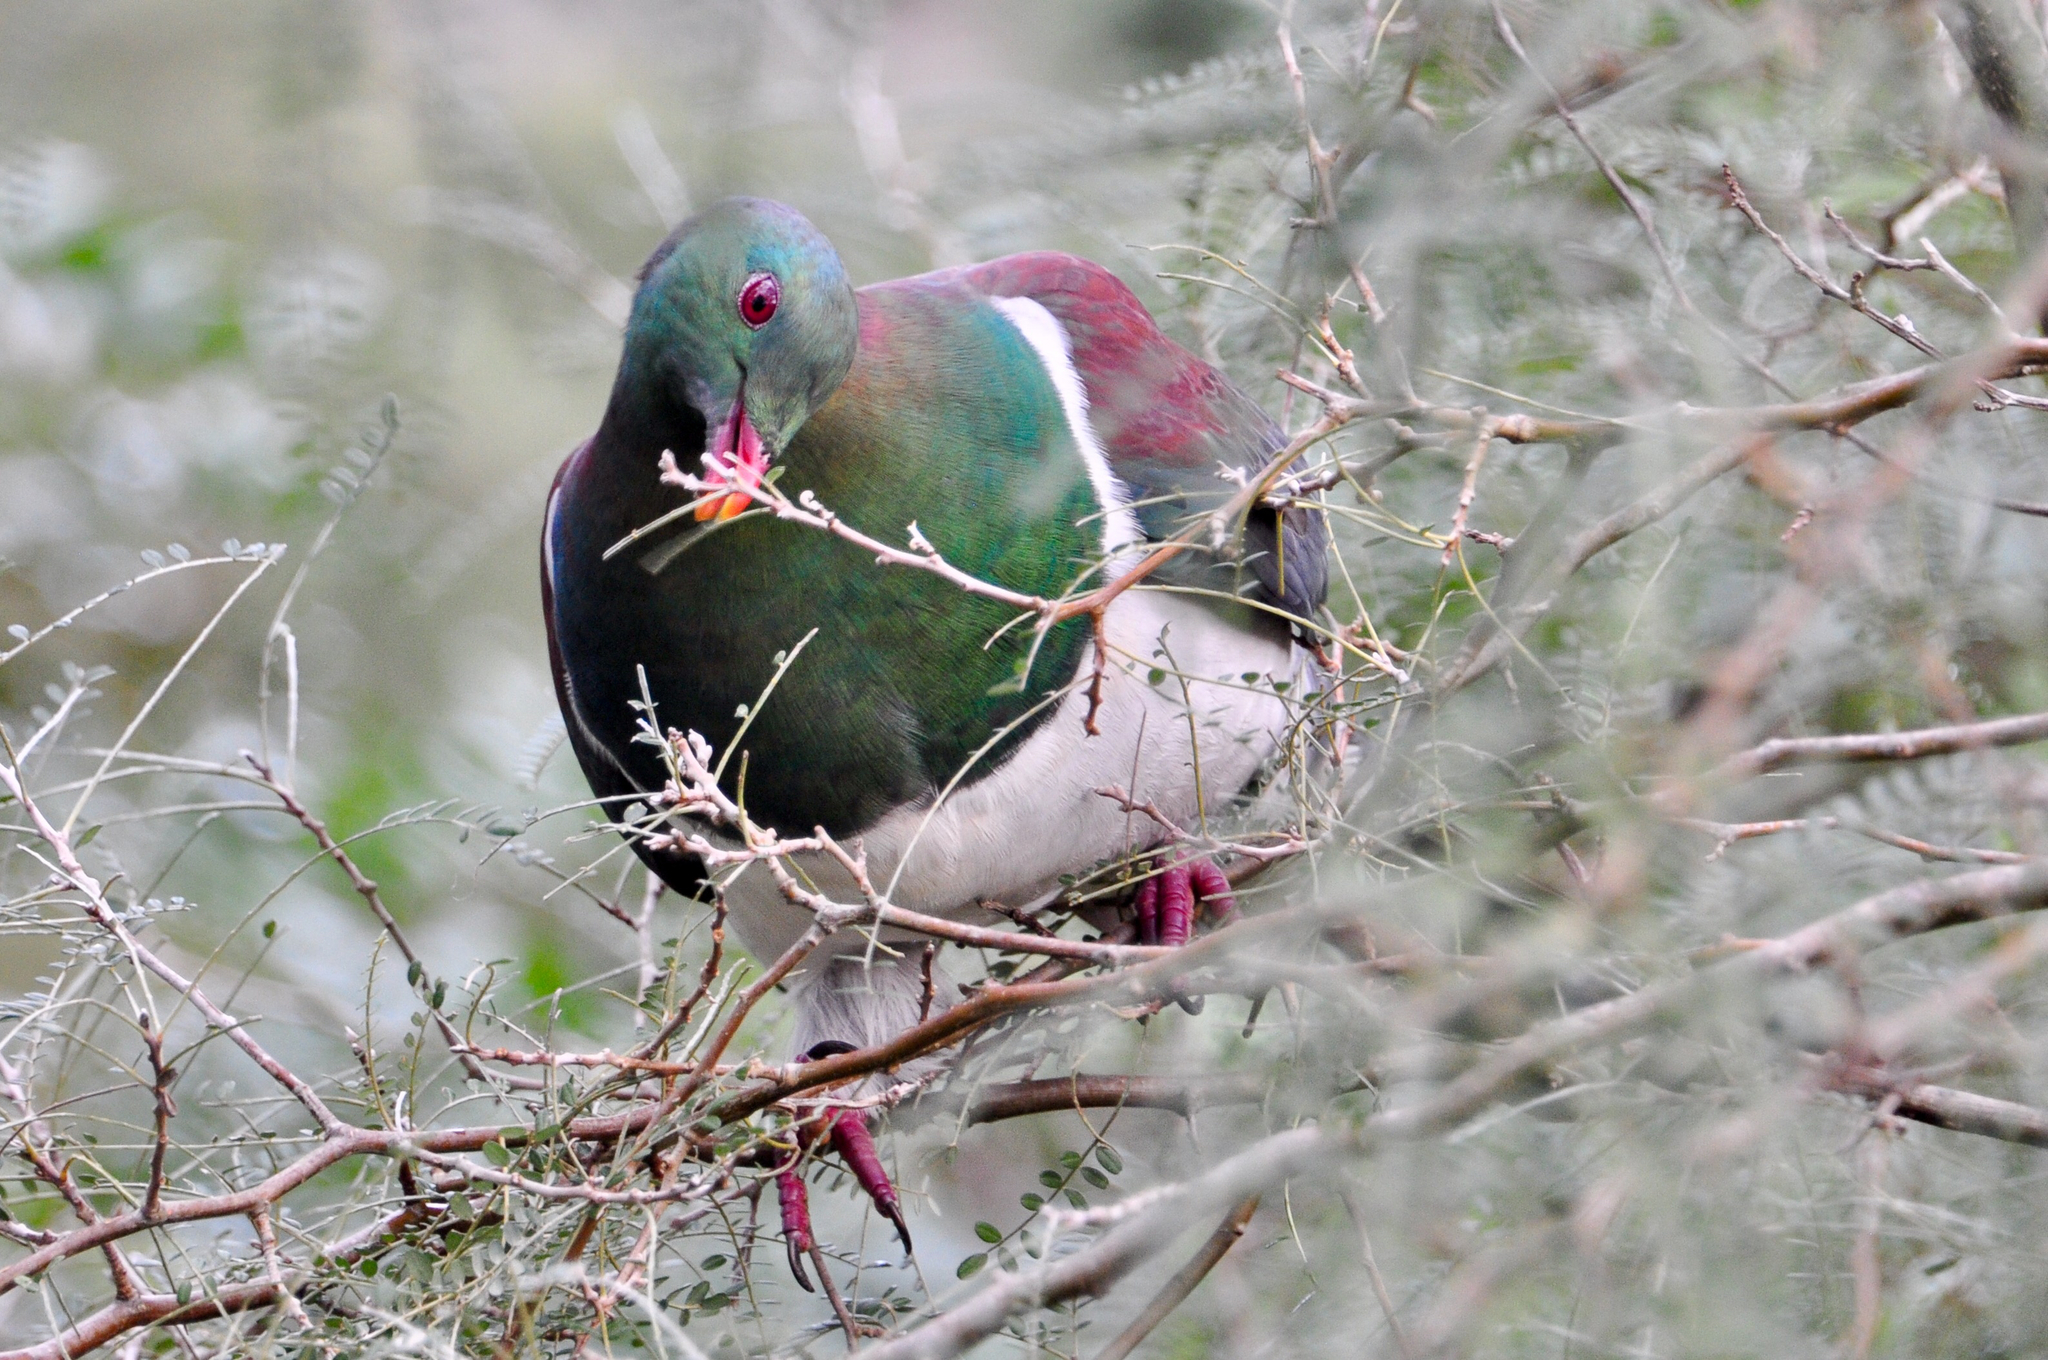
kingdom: Animalia
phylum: Chordata
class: Aves
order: Columbiformes
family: Columbidae
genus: Hemiphaga
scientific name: Hemiphaga novaeseelandiae
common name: New zealand pigeon
